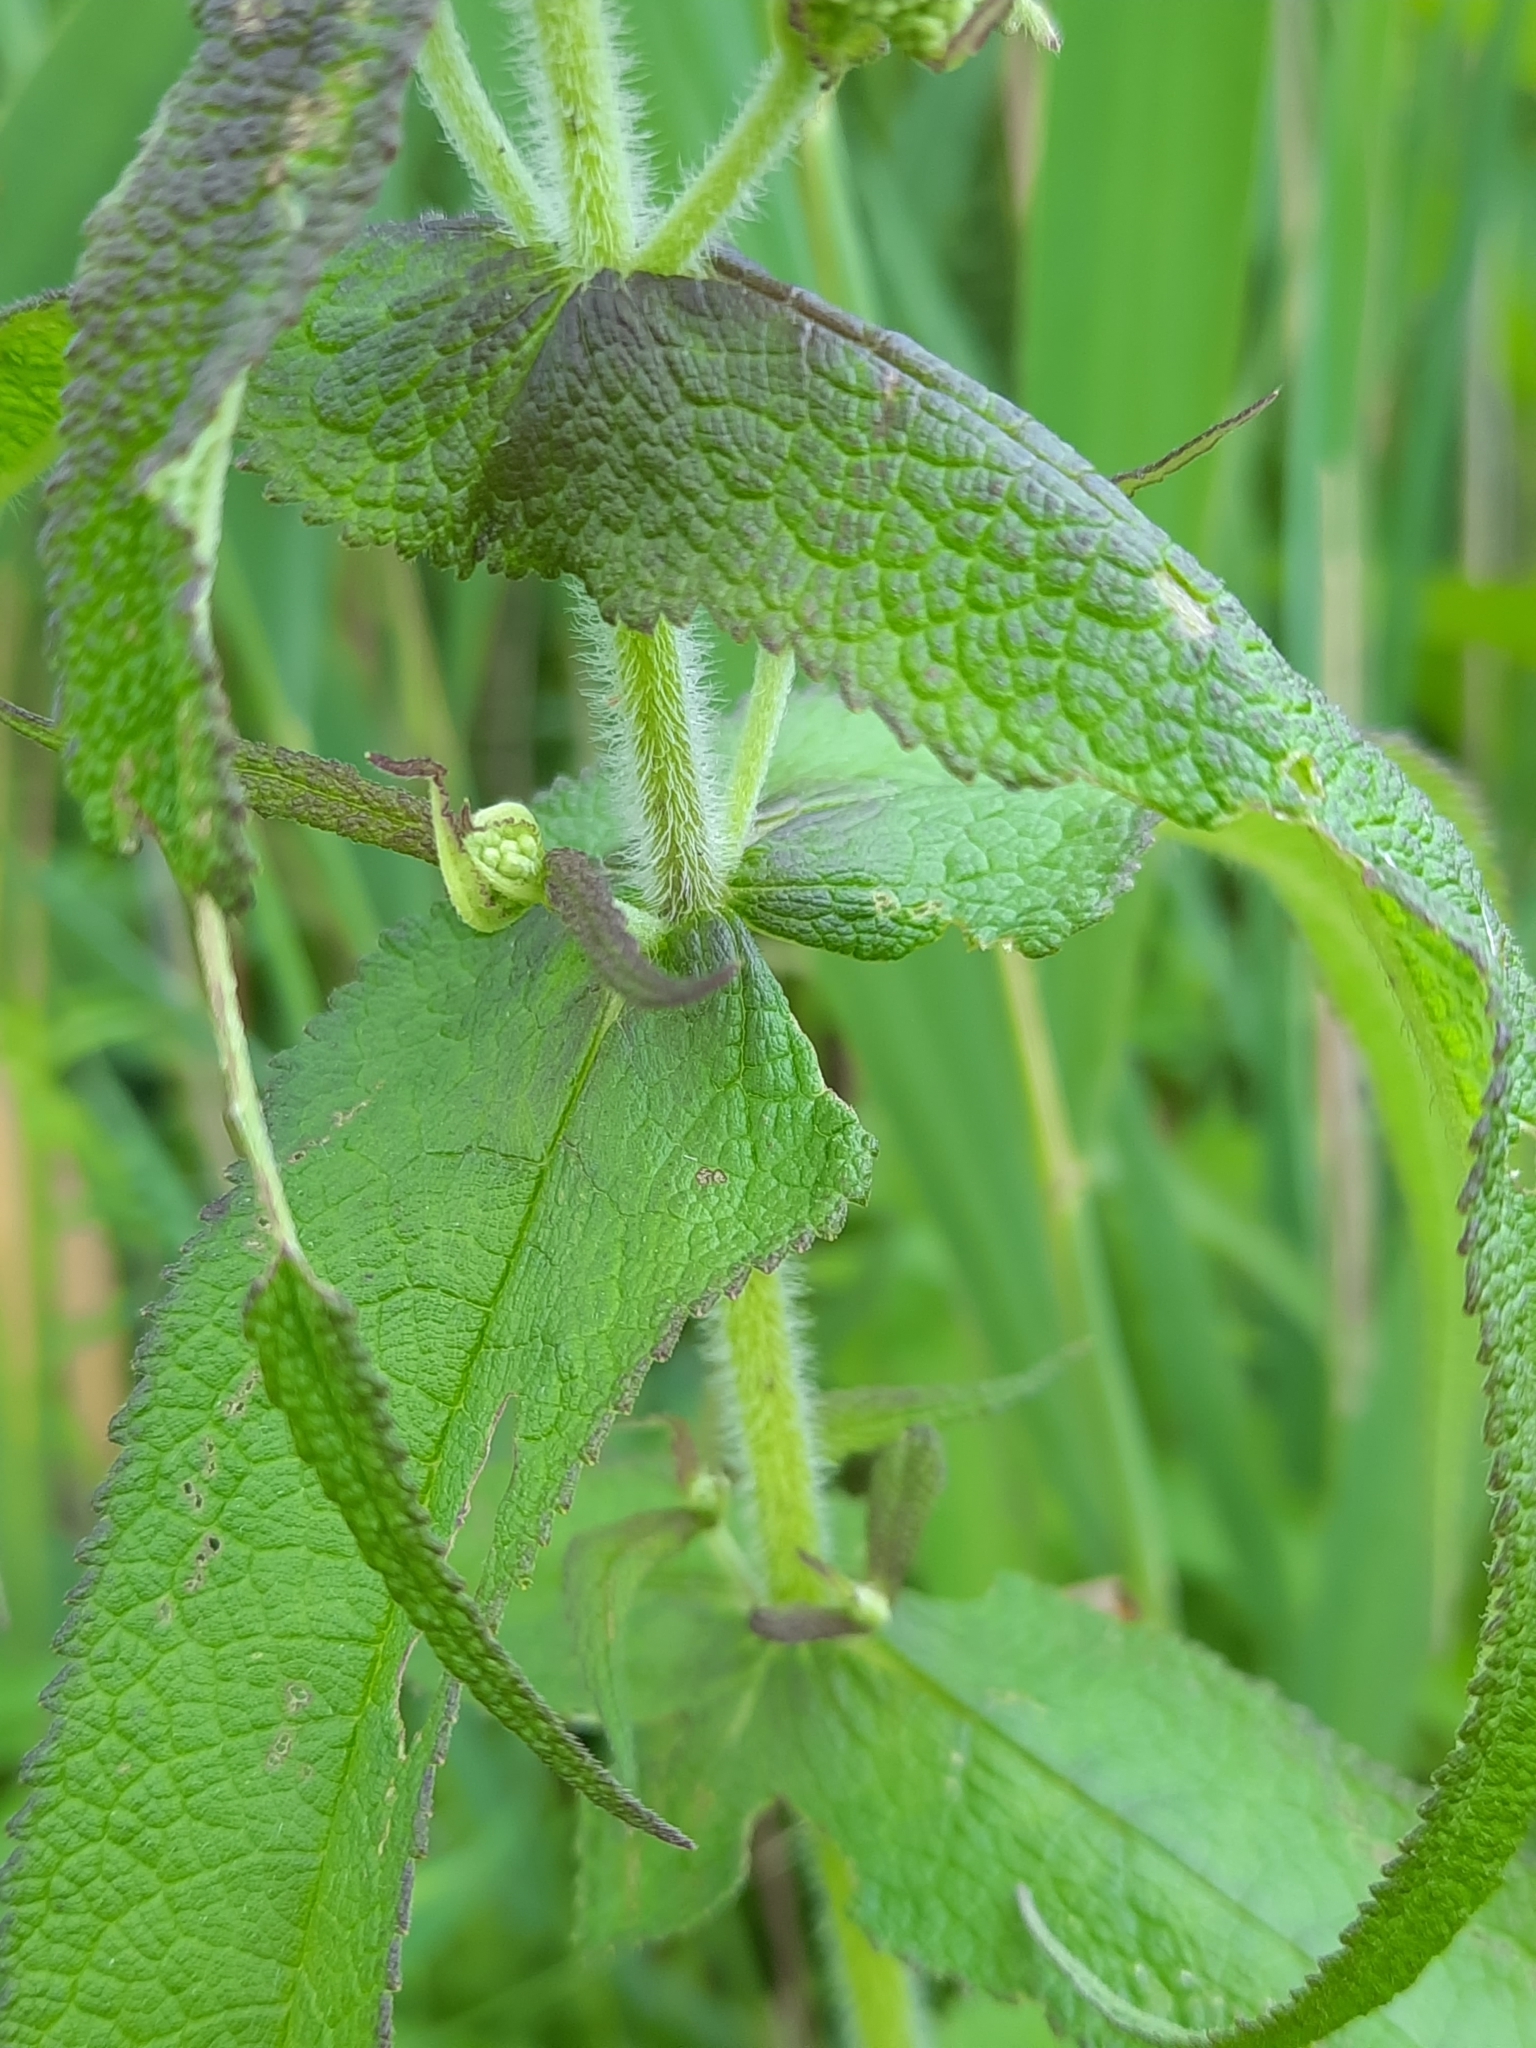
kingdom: Plantae
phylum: Tracheophyta
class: Magnoliopsida
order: Asterales
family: Asteraceae
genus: Eupatorium
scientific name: Eupatorium perfoliatum
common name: Boneset
